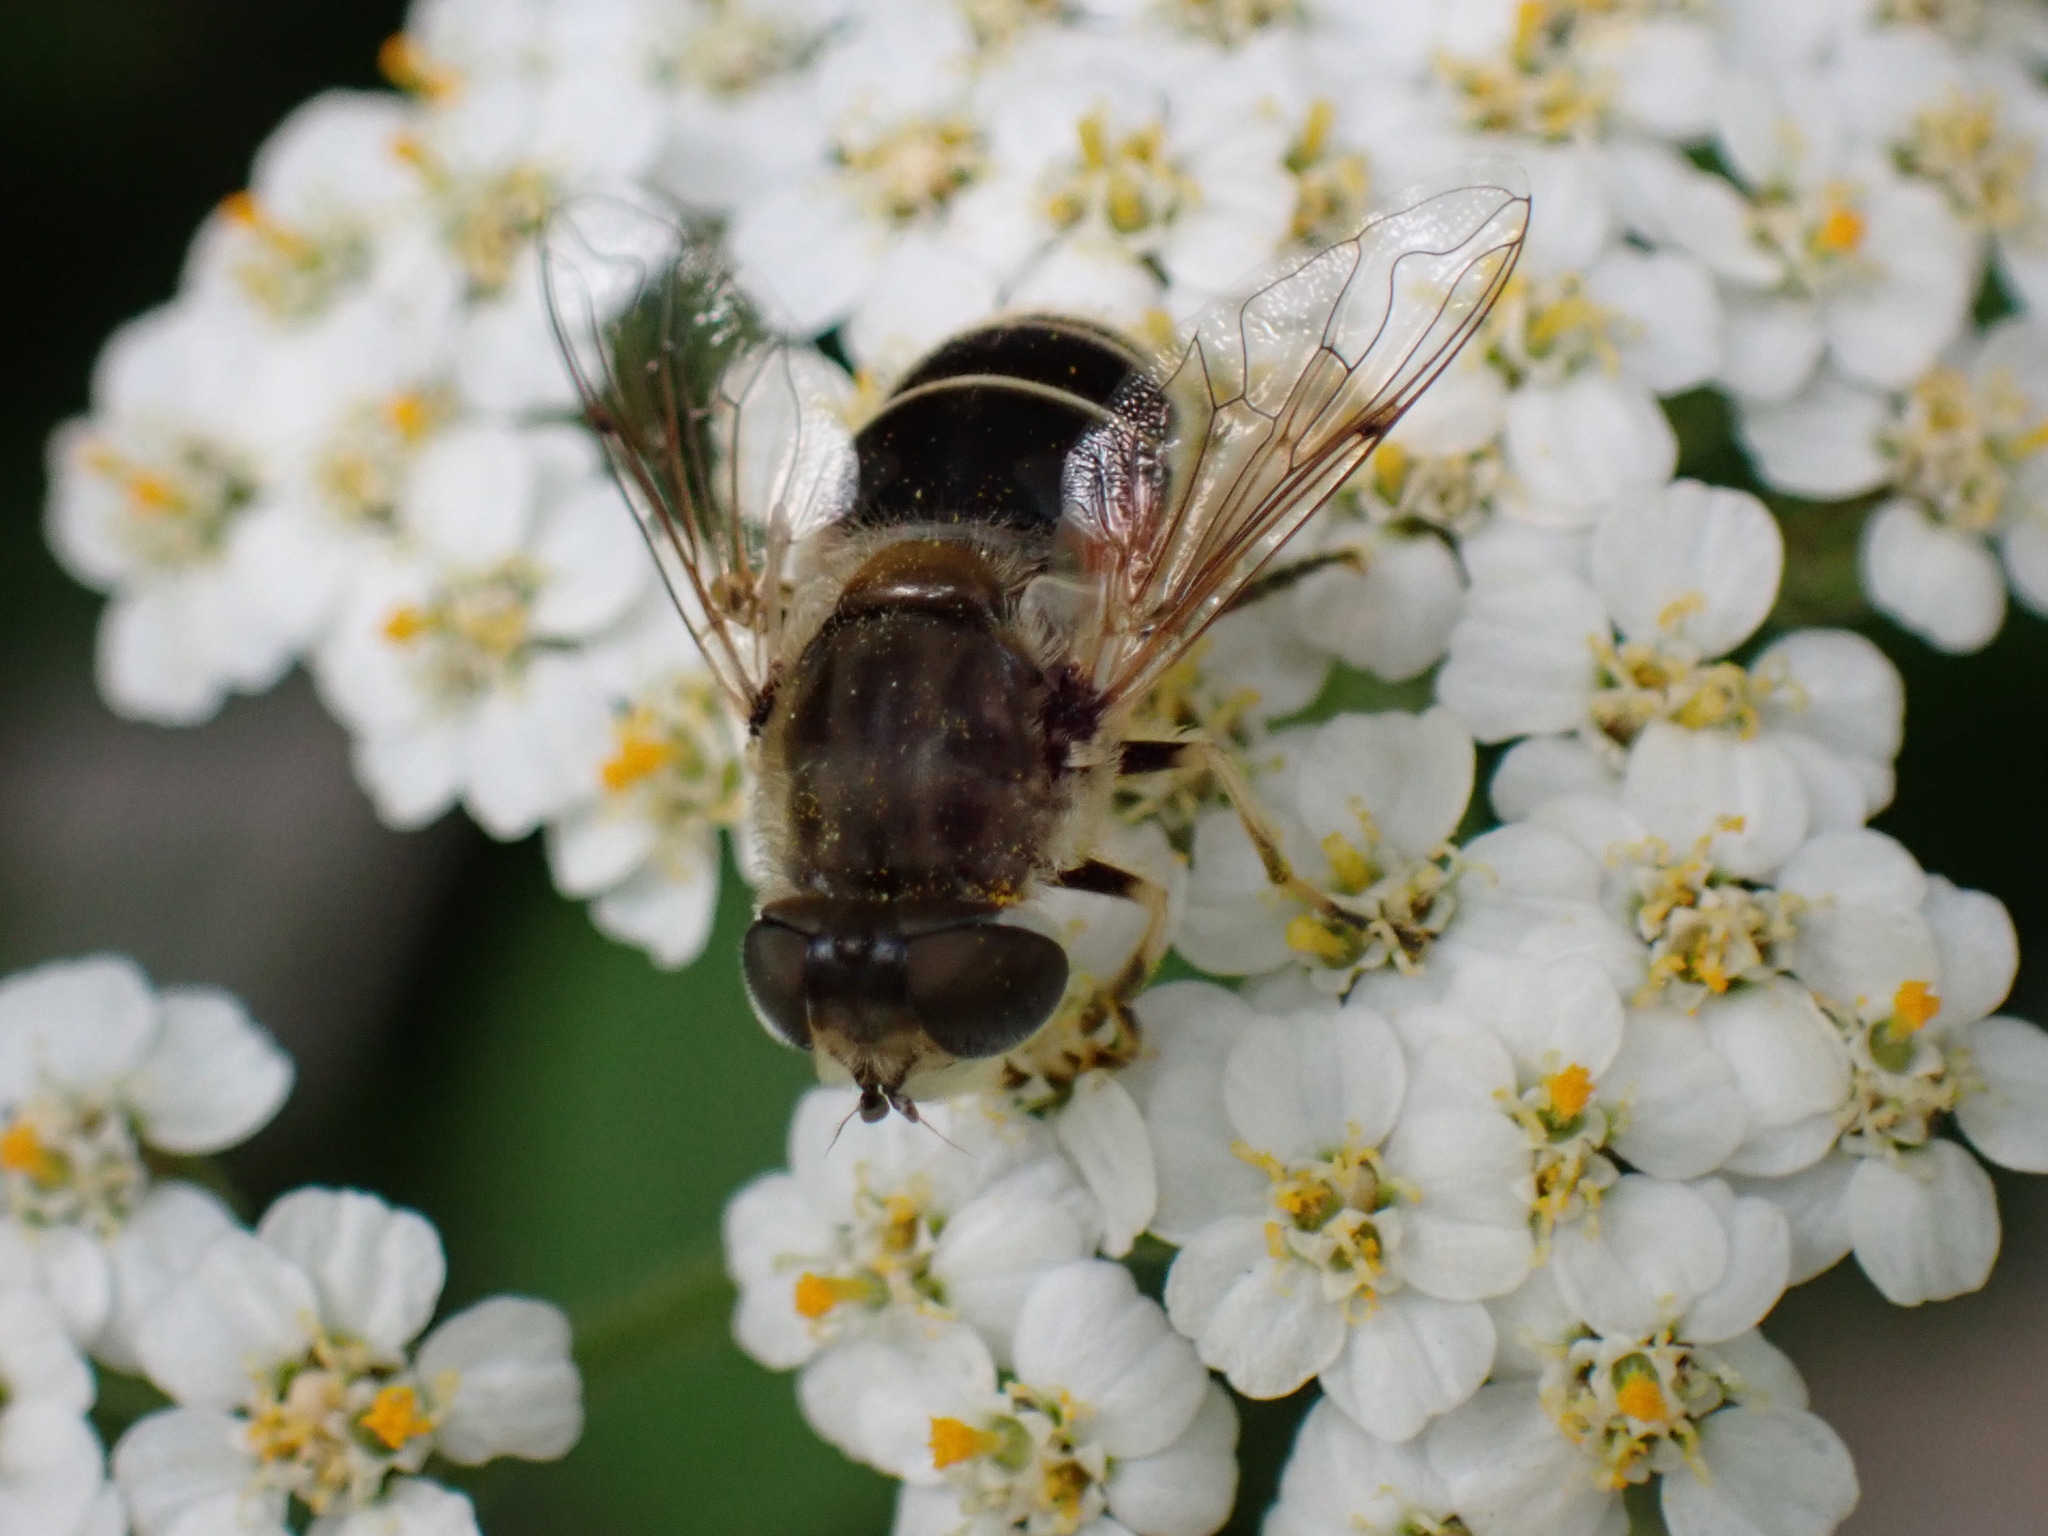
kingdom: Animalia
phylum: Arthropoda
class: Insecta
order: Diptera
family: Syrphidae
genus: Eristalis
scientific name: Eristalis arbustorum
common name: Hover fly
